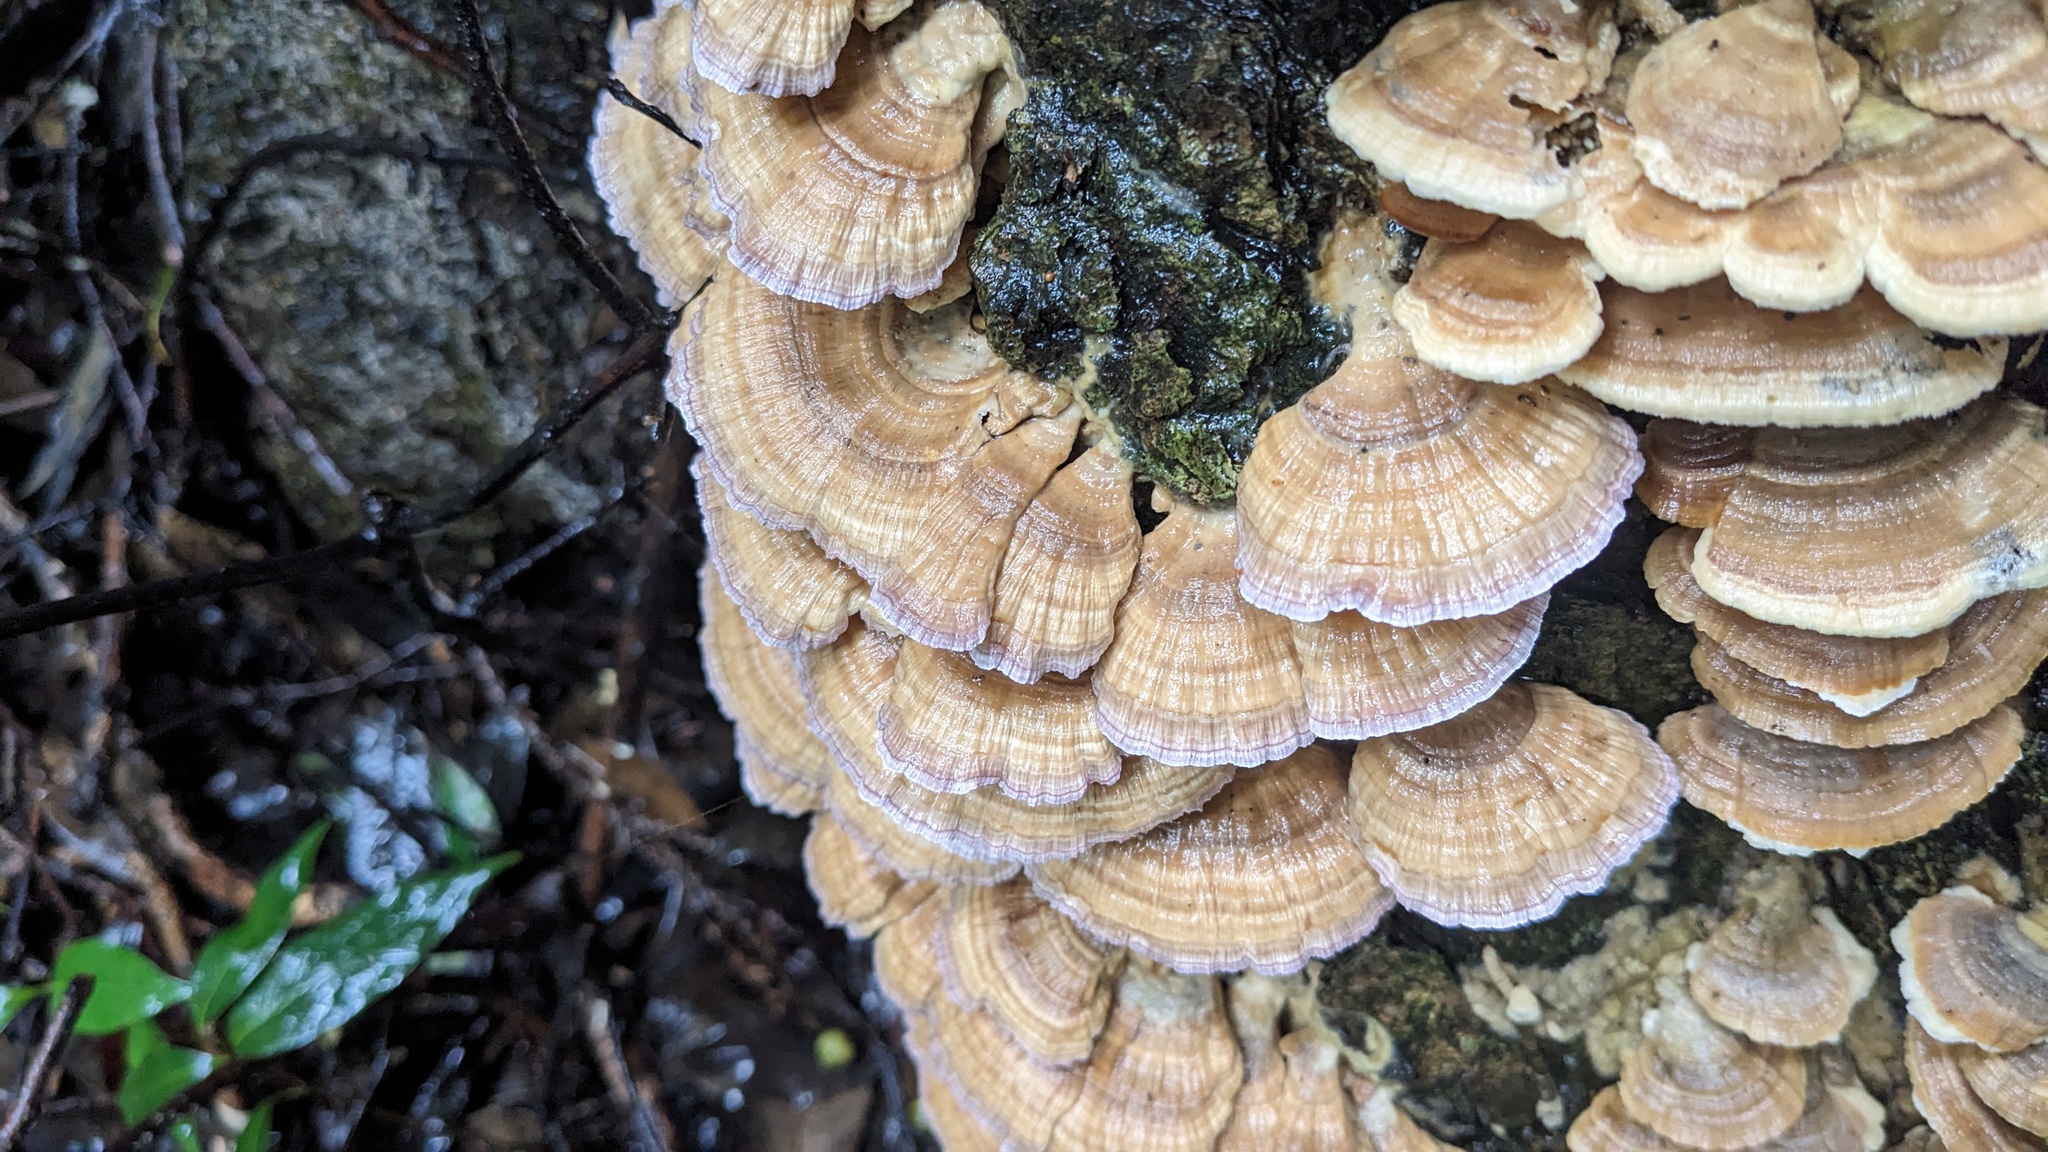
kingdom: Fungi
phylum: Basidiomycota
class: Agaricomycetes
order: Hymenochaetales
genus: Trichaptum
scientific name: Trichaptum biforme
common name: Violet-toothed polypore
